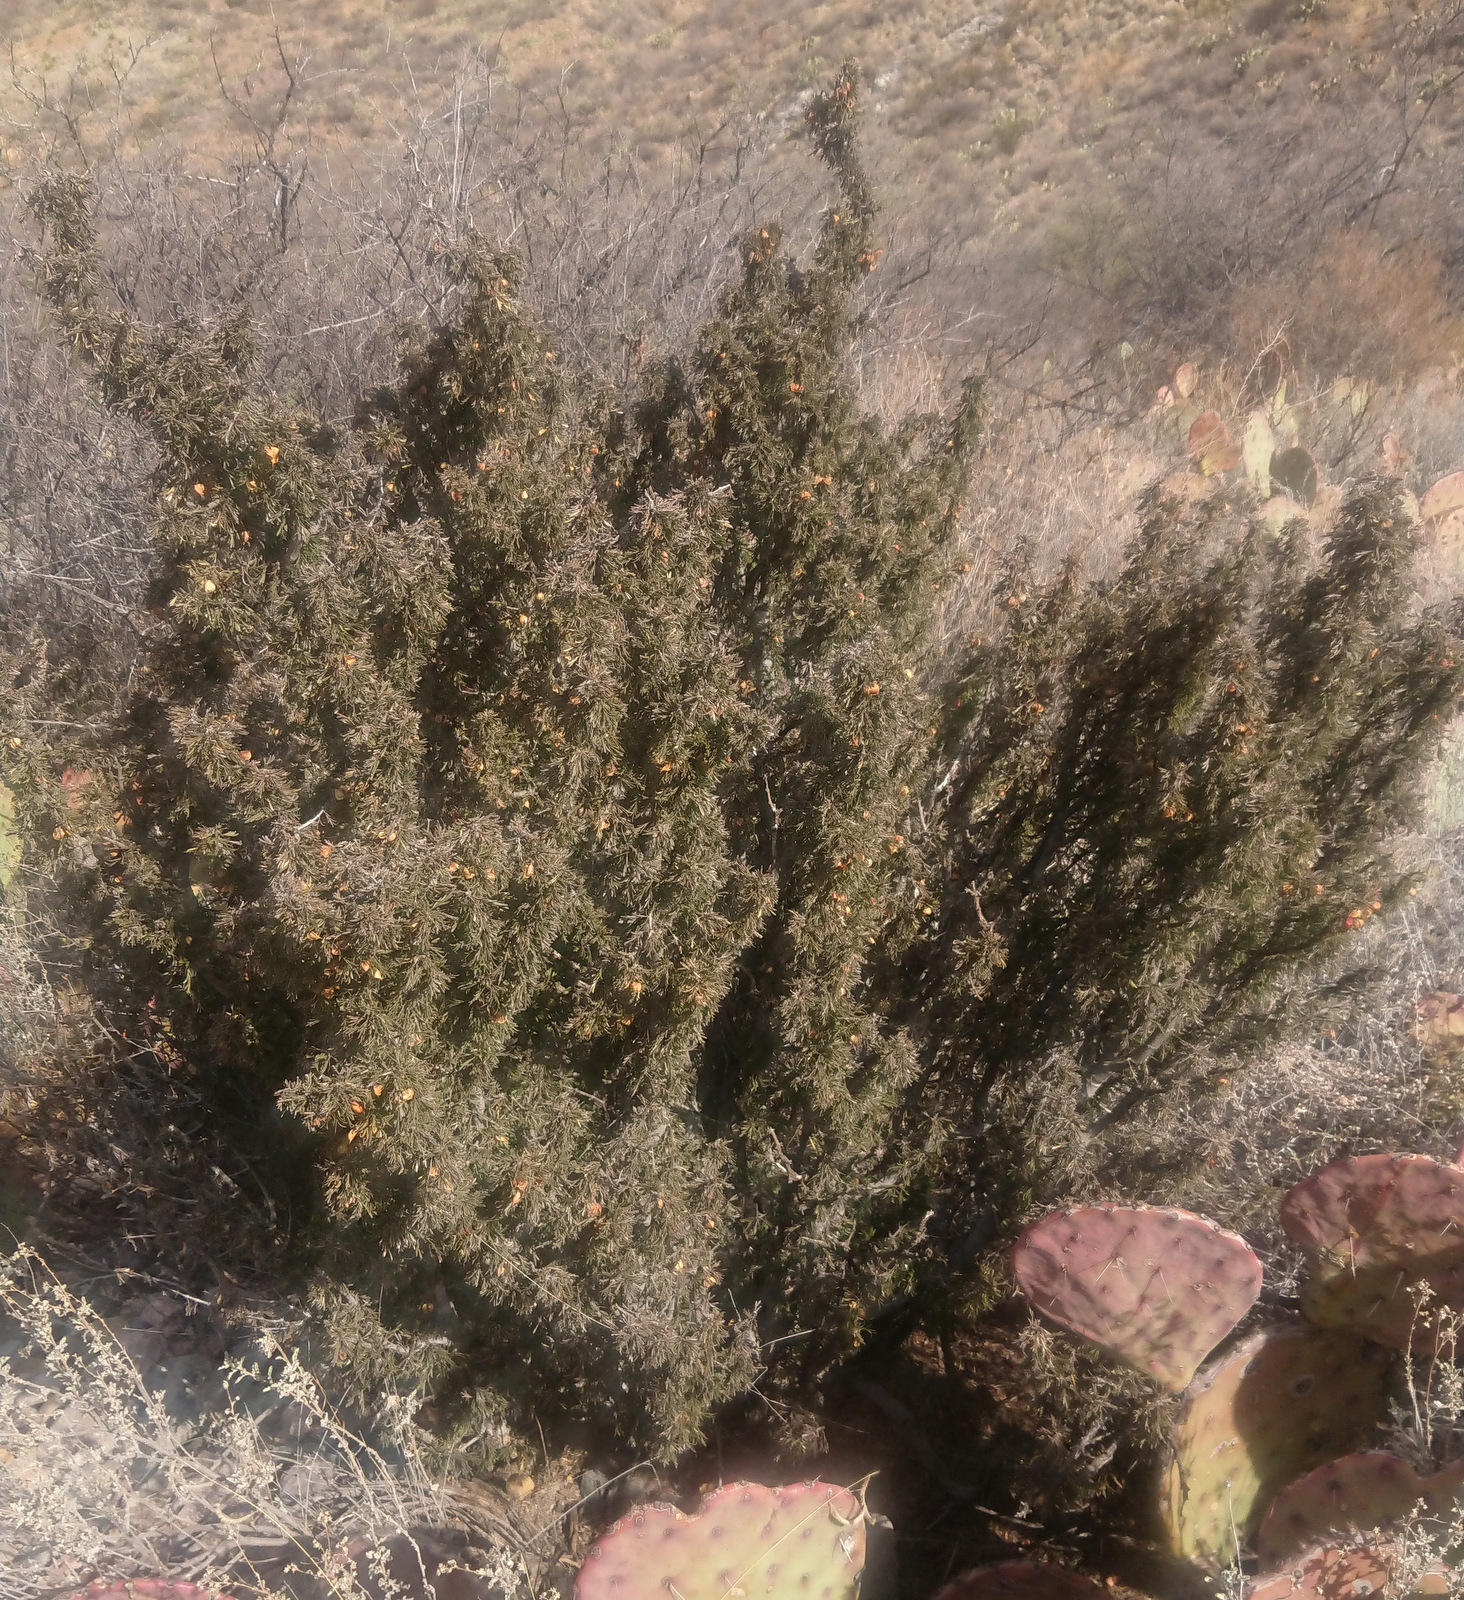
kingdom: Plantae
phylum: Tracheophyta
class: Magnoliopsida
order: Zygophyllales
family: Zygophyllaceae
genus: Porlieria
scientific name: Porlieria angustifolia
